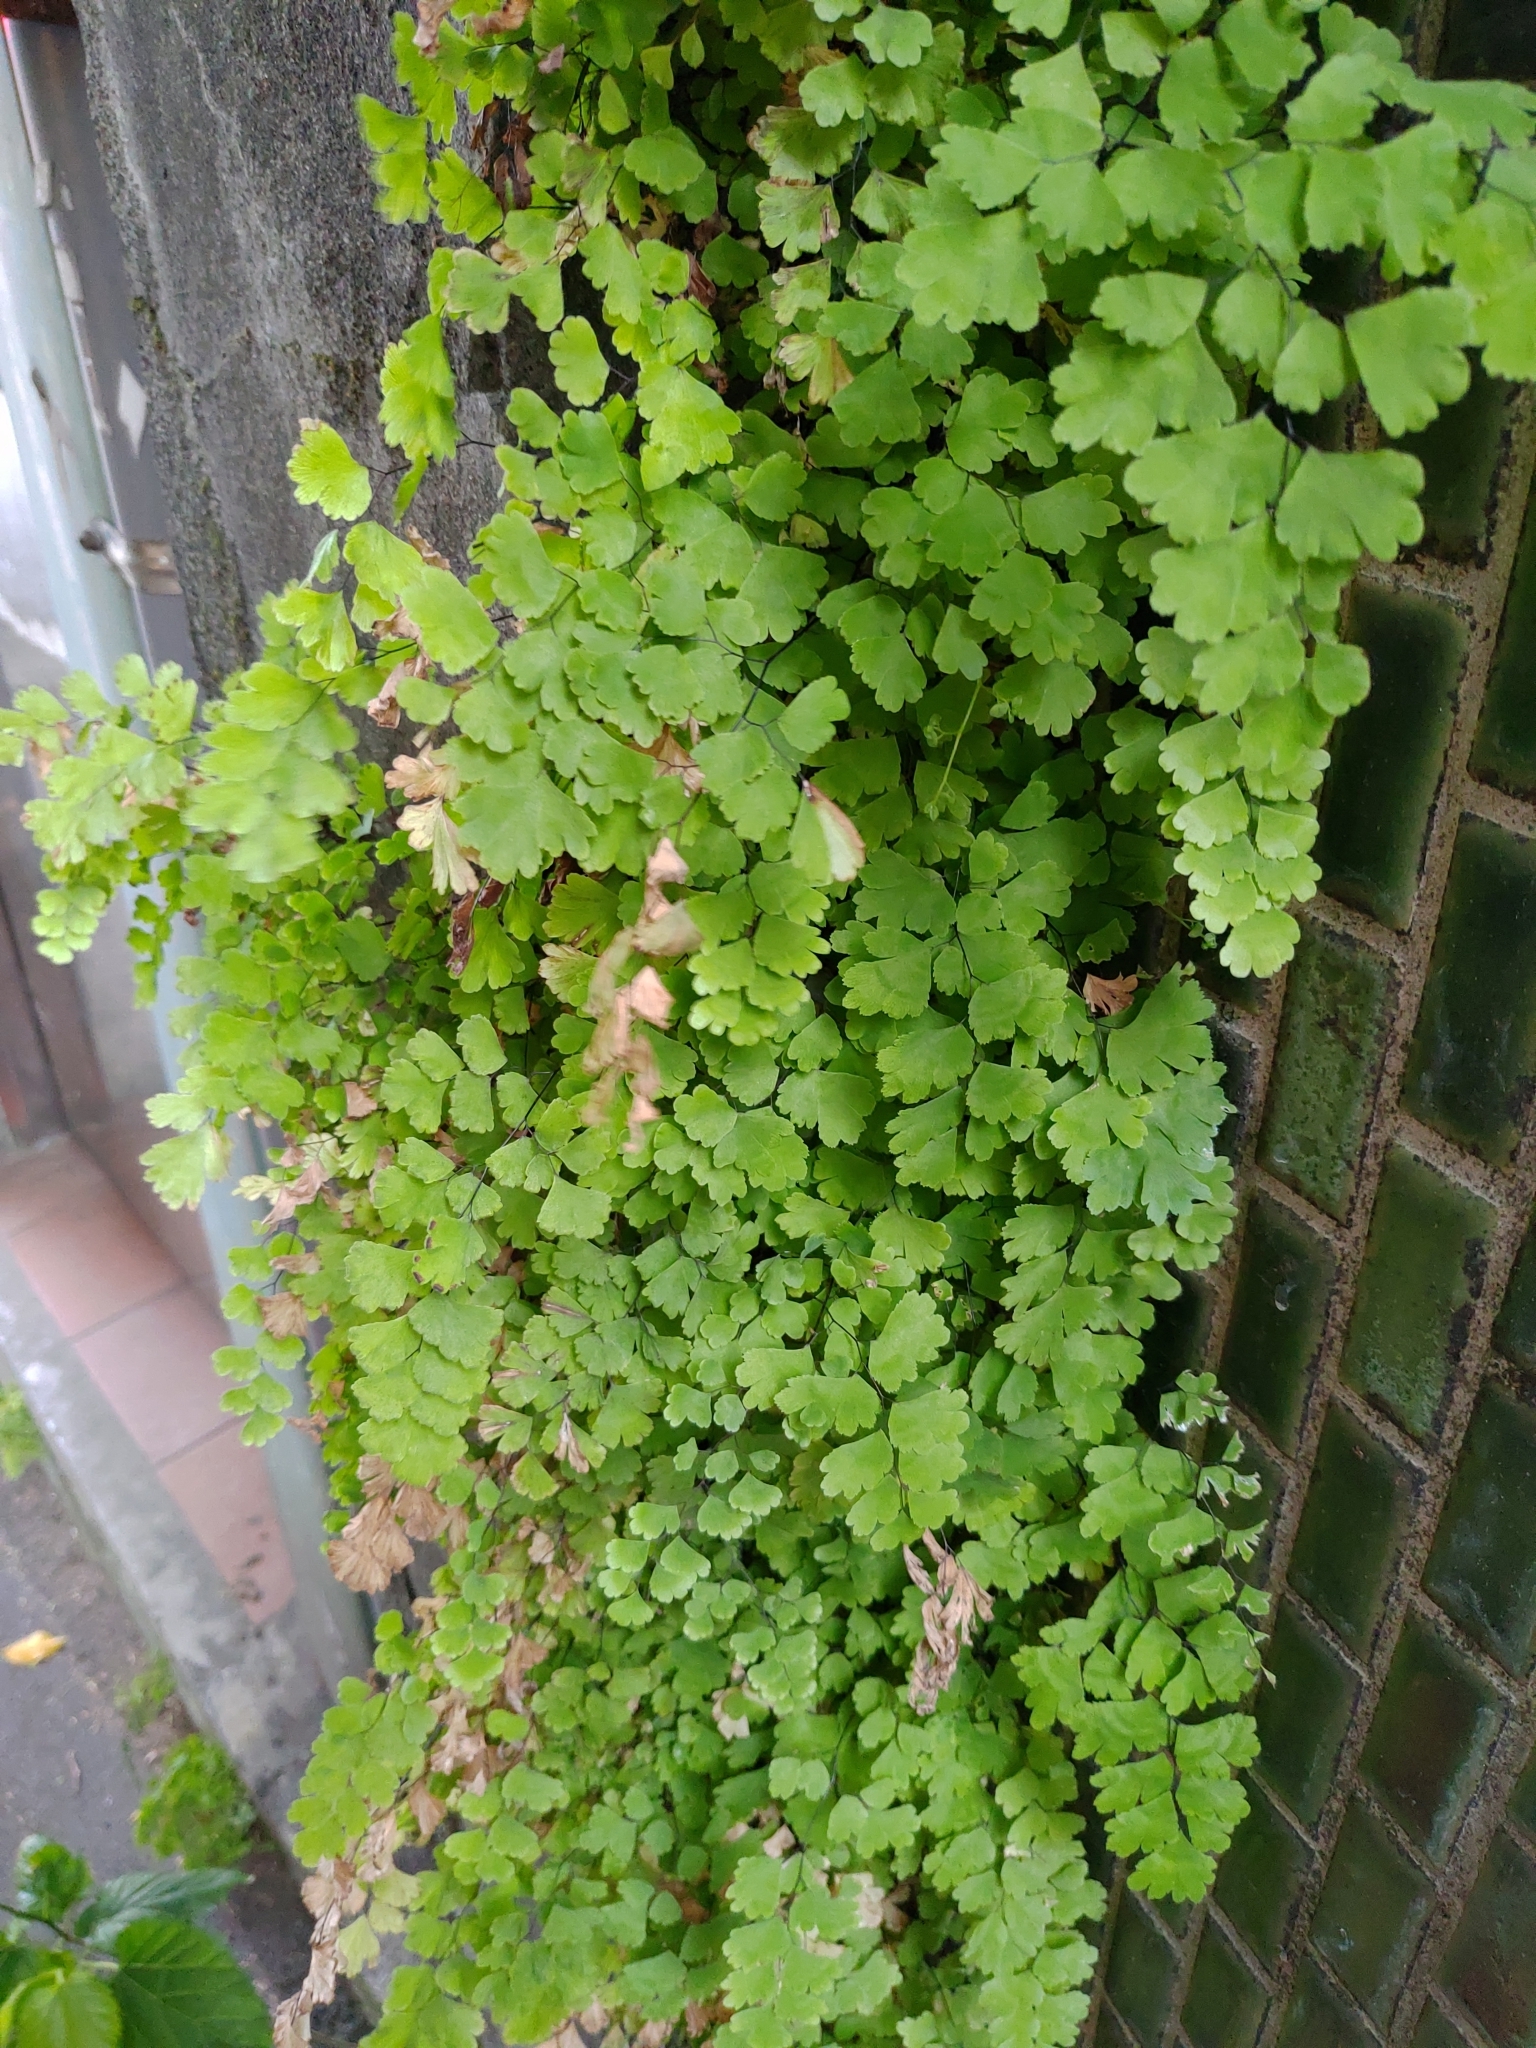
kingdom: Plantae
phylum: Tracheophyta
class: Polypodiopsida
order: Polypodiales
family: Pteridaceae
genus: Adiantum
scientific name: Adiantum capillus-veneris
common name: Maidenhair fern
